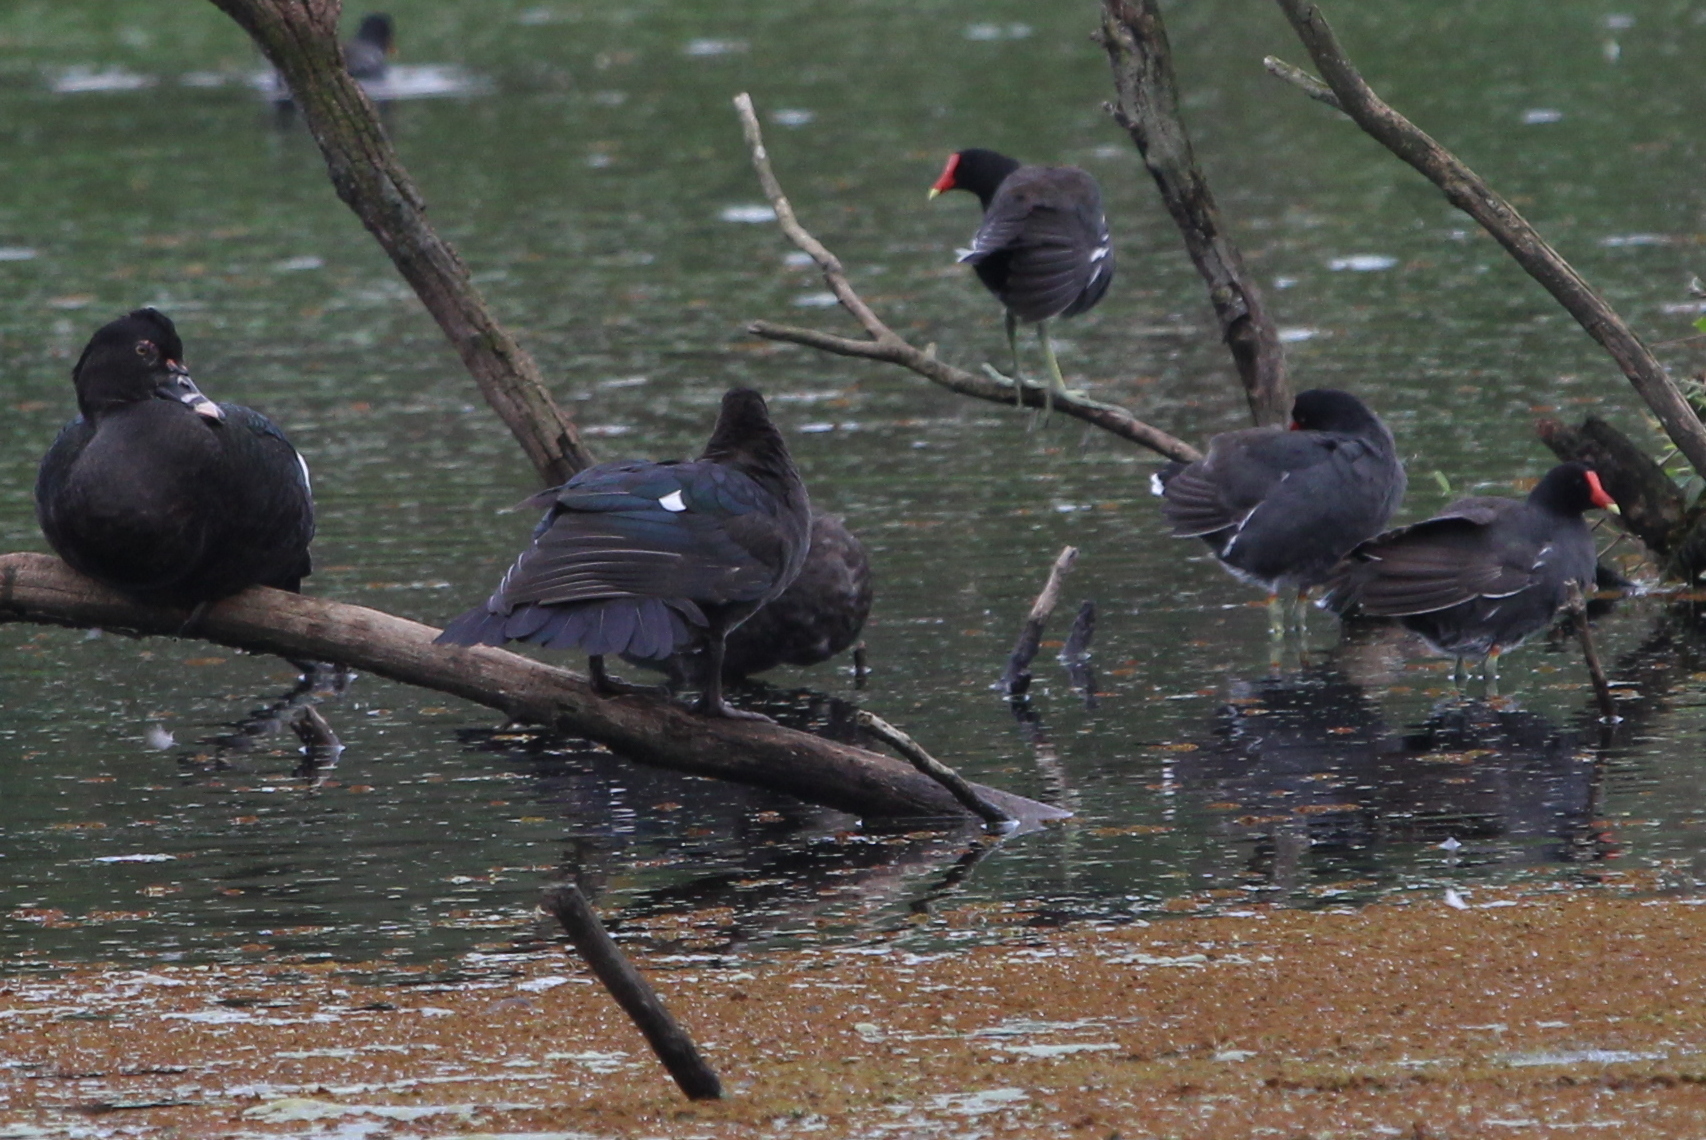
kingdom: Animalia
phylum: Chordata
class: Aves
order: Anseriformes
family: Anatidae
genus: Cairina
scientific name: Cairina moschata
